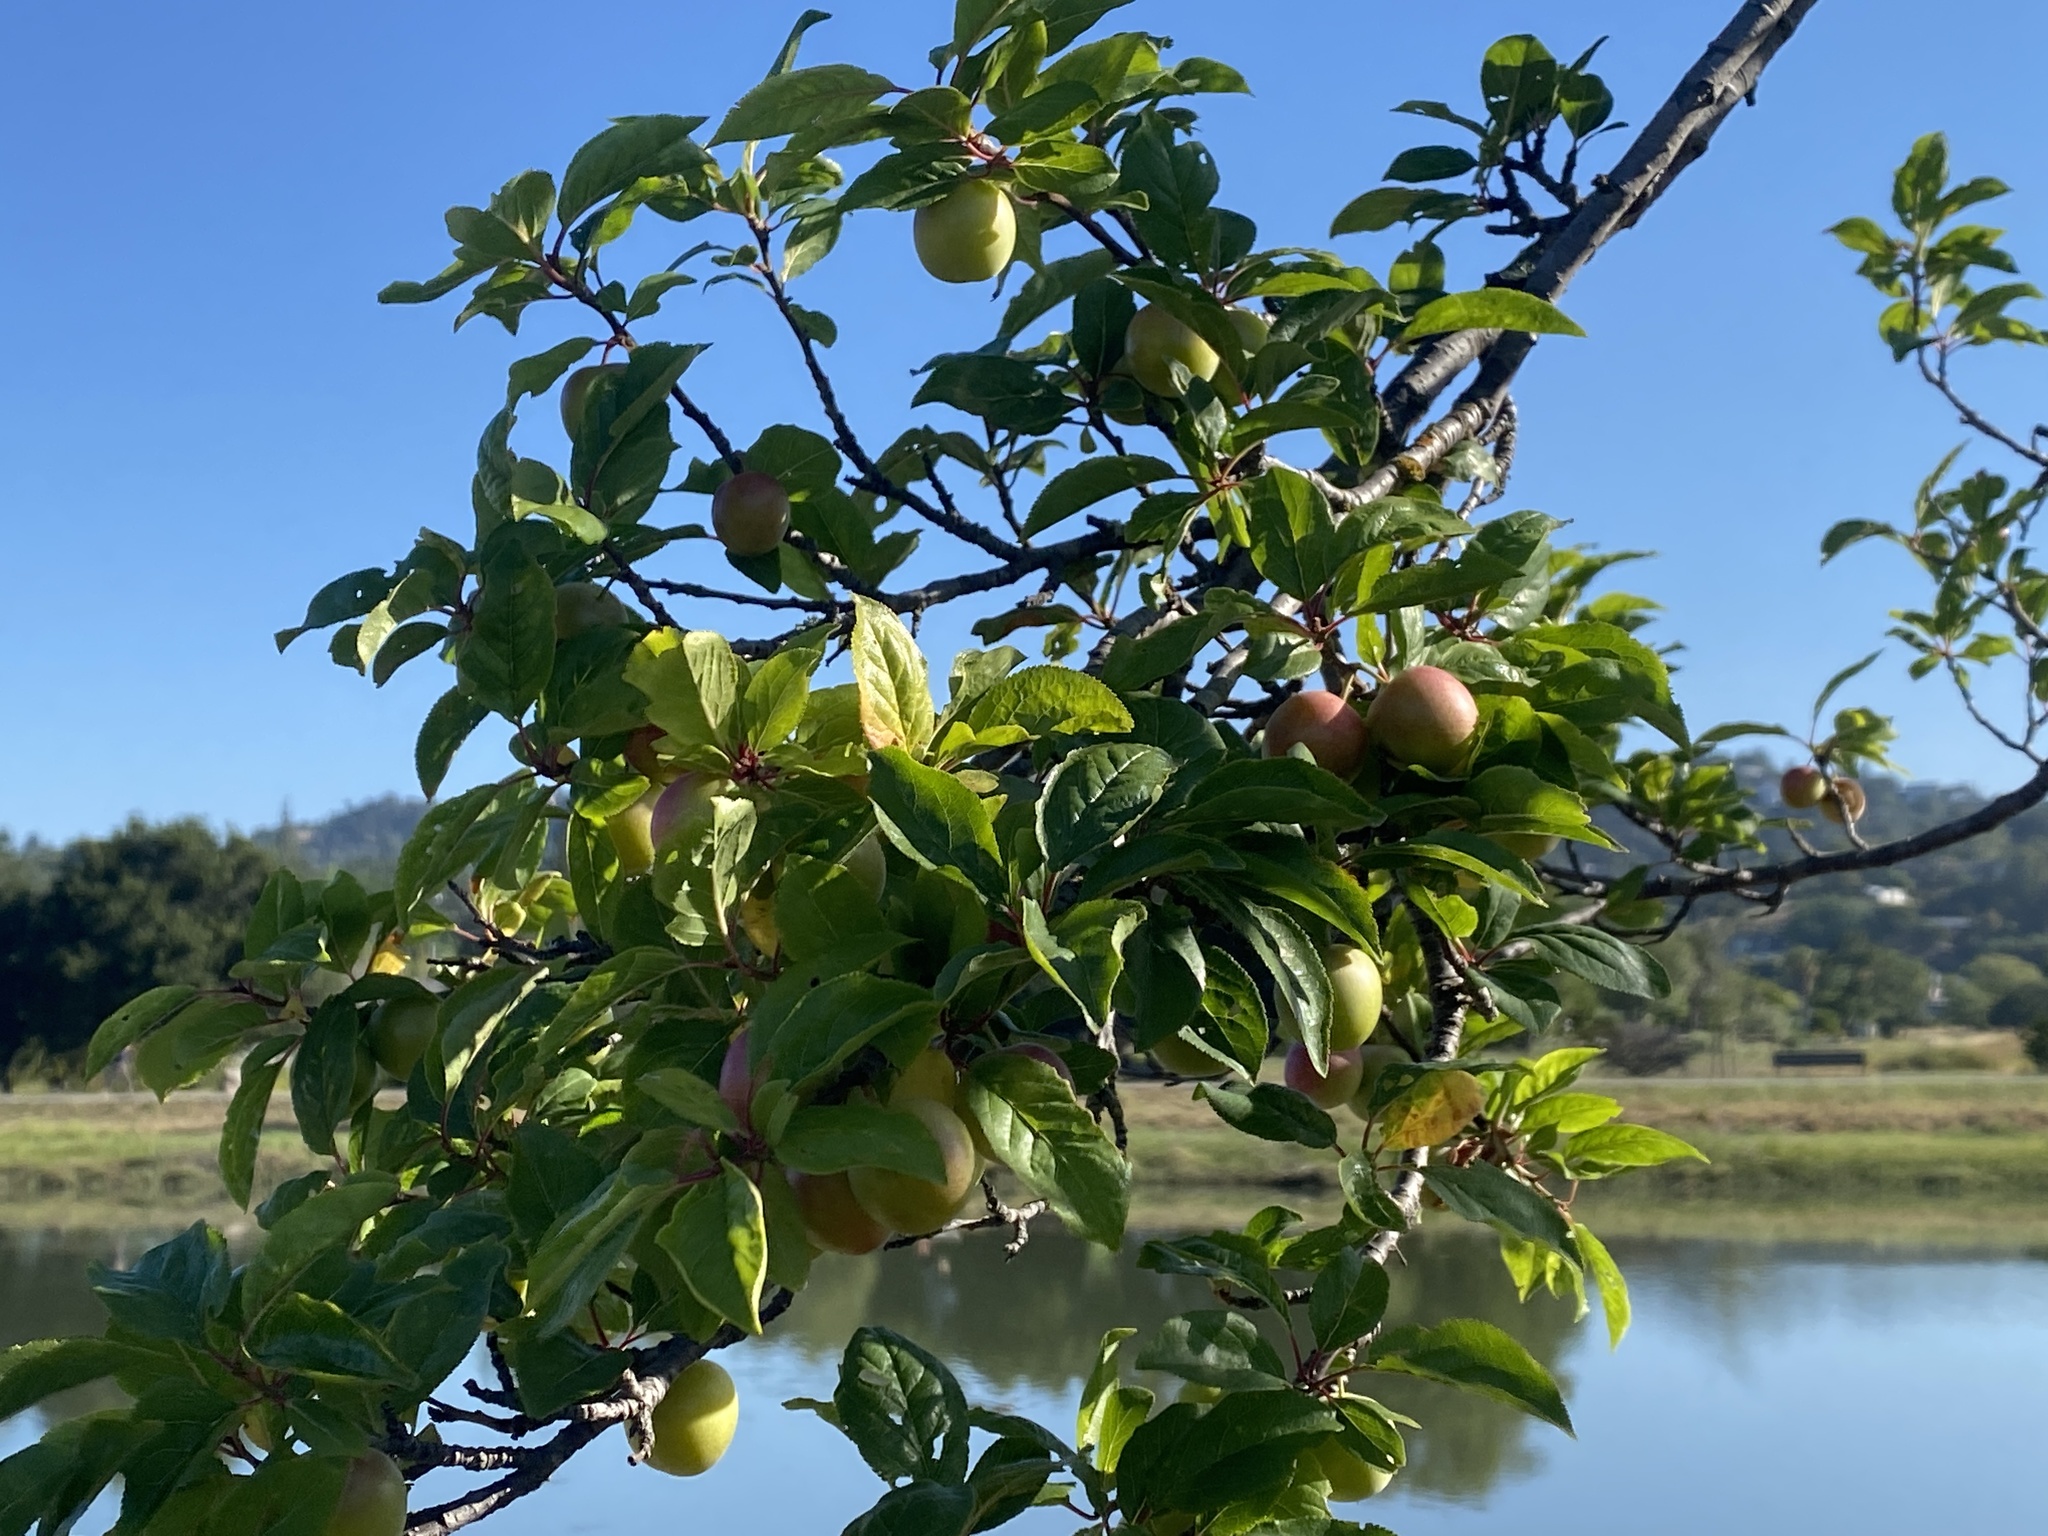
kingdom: Plantae
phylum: Tracheophyta
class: Magnoliopsida
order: Rosales
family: Rosaceae
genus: Prunus
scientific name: Prunus cerasifera
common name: Cherry plum
